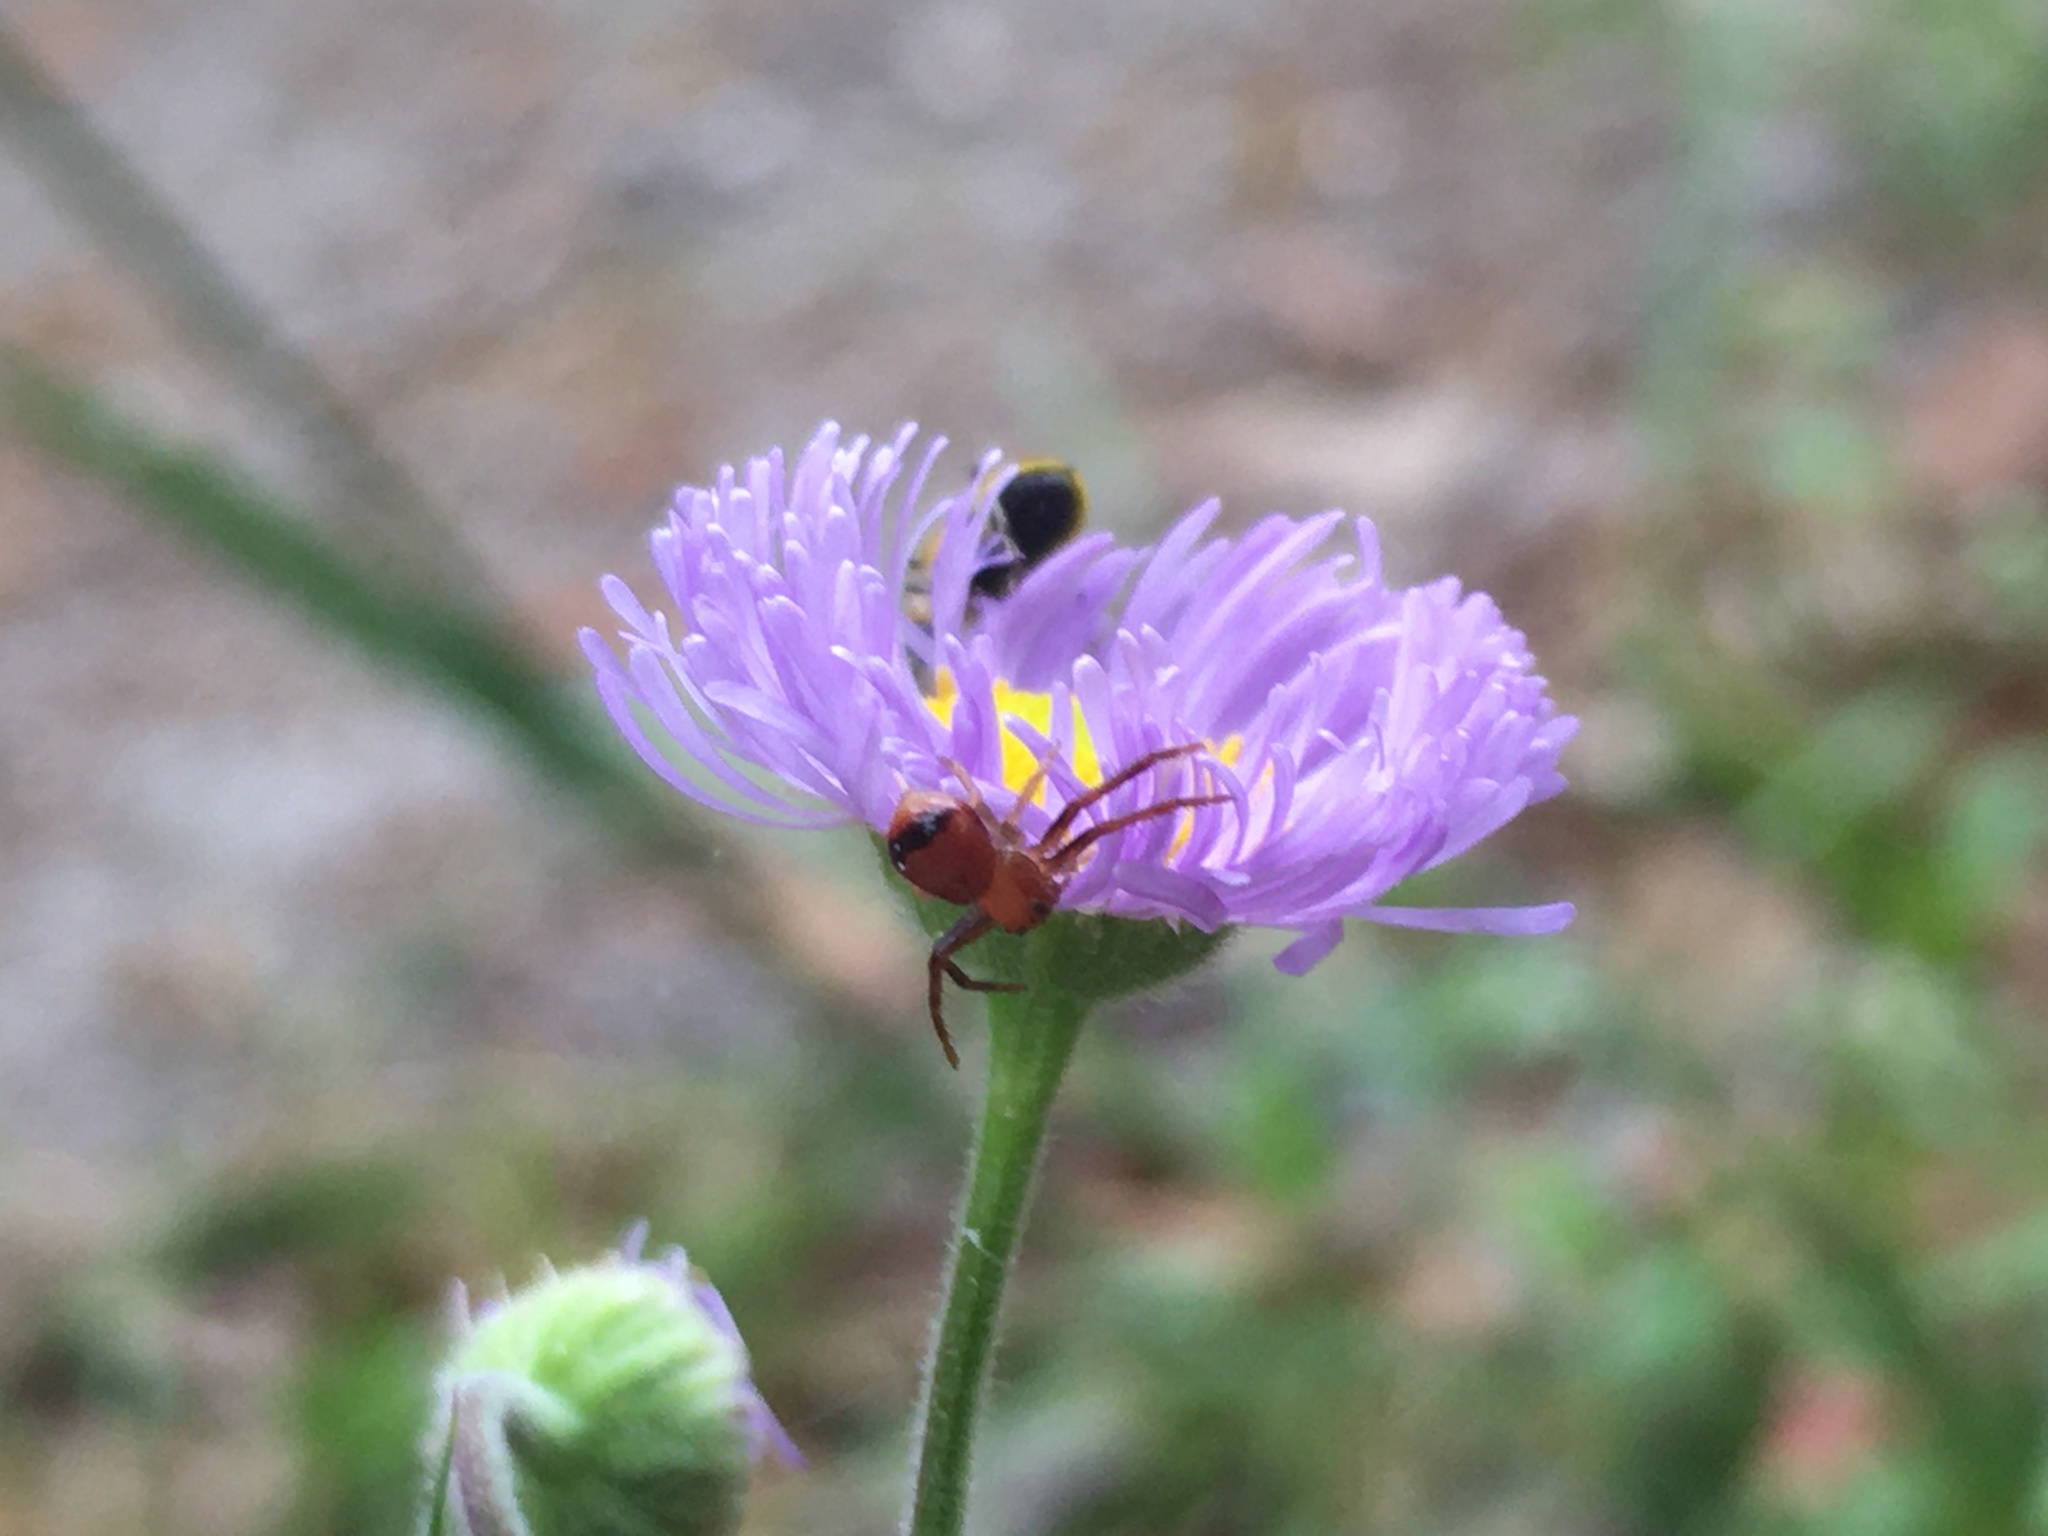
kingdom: Animalia
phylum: Arthropoda
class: Arachnida
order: Araneae
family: Thomisidae
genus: Synema
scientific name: Synema parvulum
